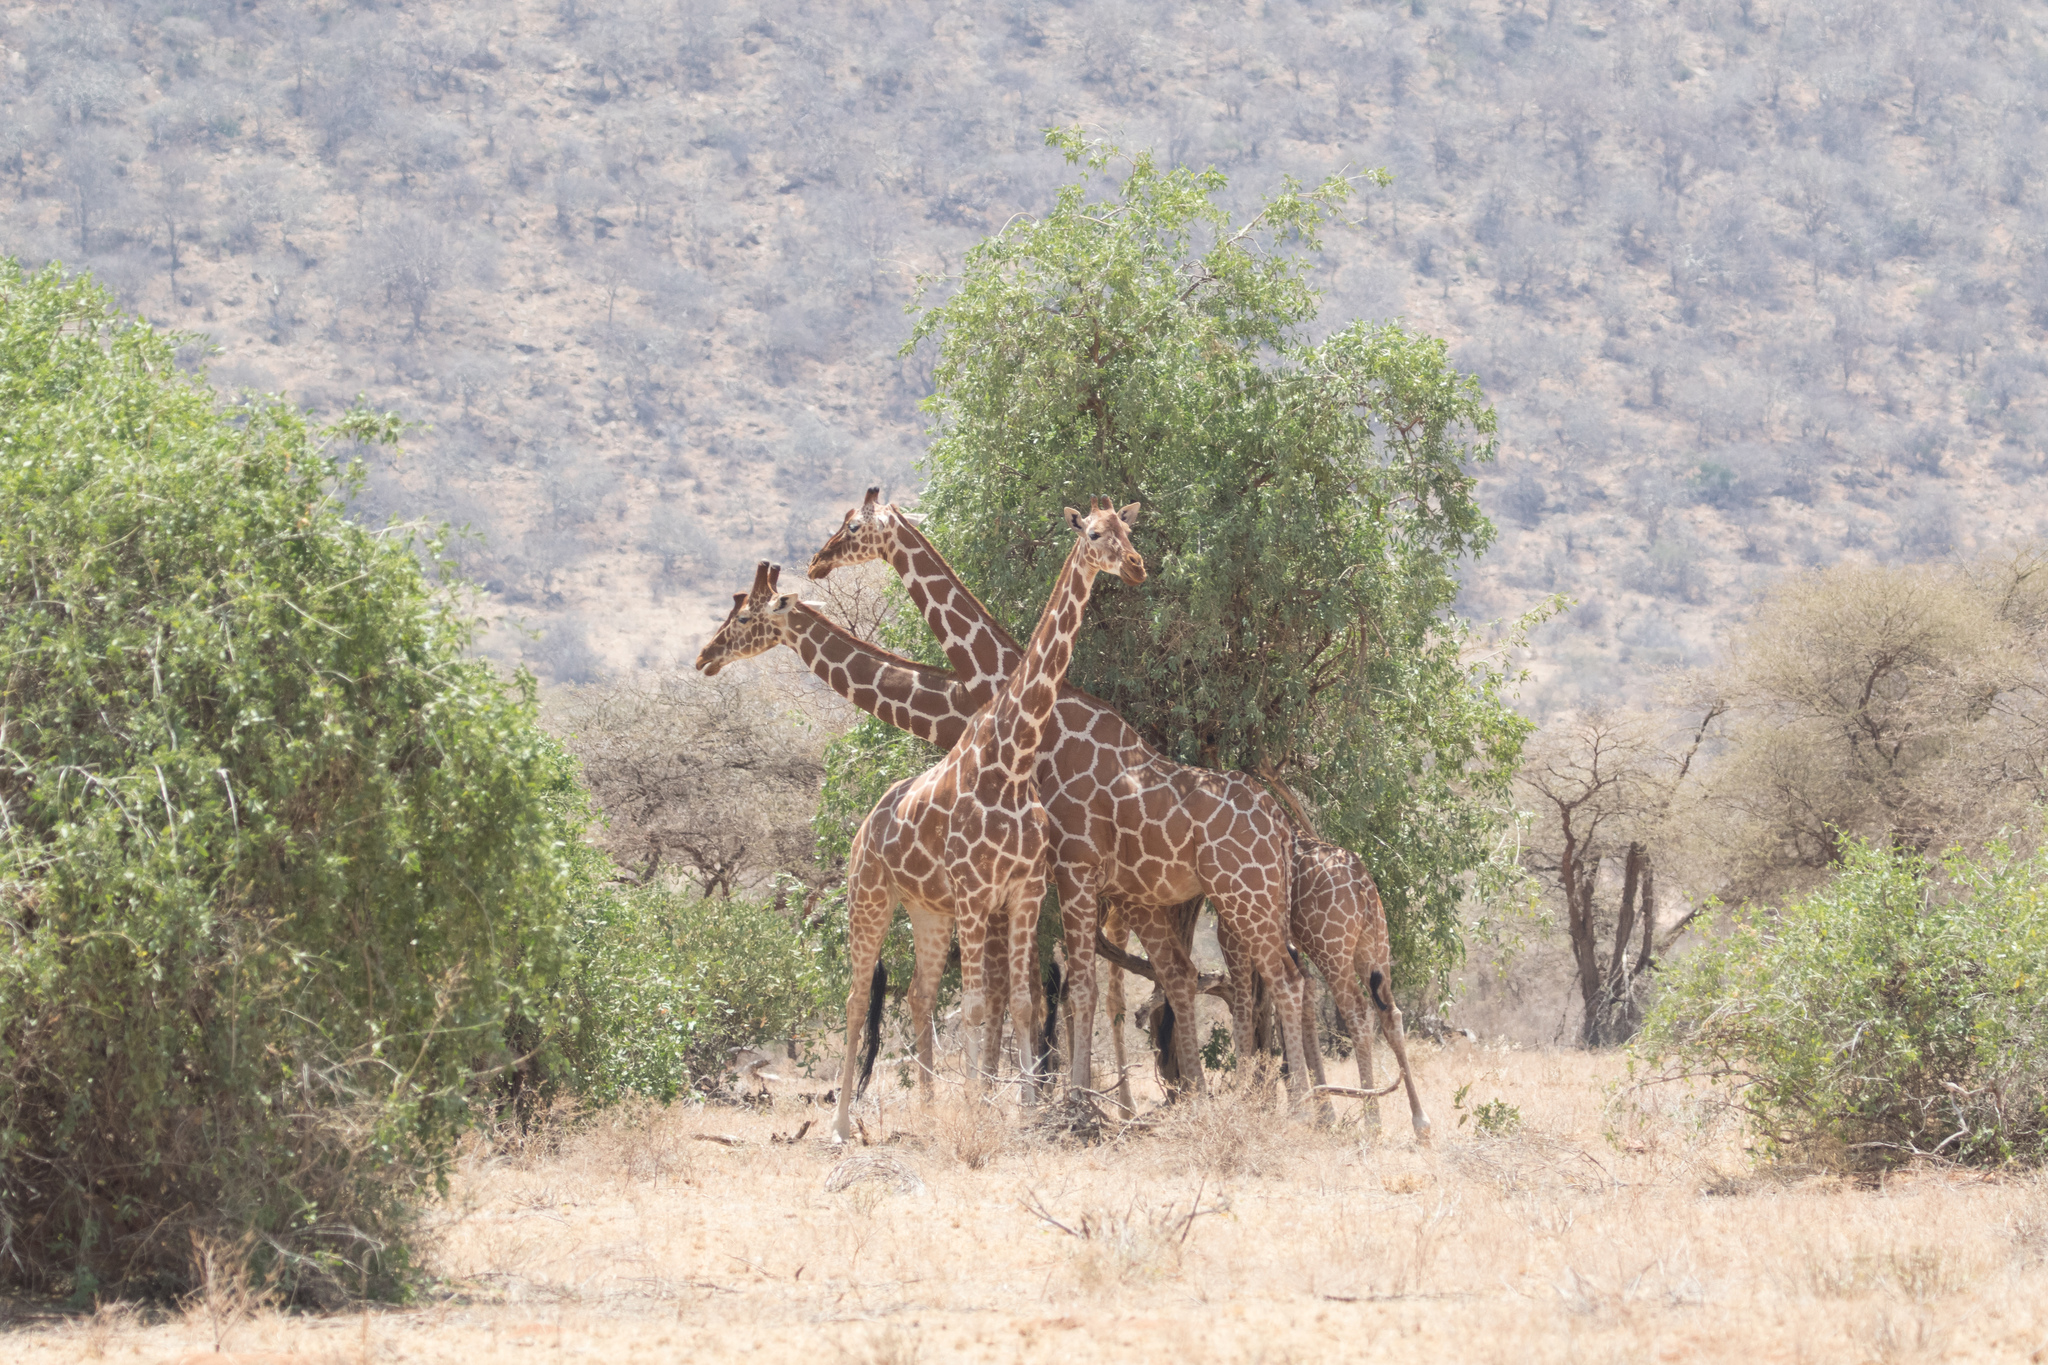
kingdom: Animalia
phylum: Chordata
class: Mammalia
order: Artiodactyla
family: Giraffidae
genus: Giraffa
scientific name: Giraffa reticulata
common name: Reticulated giraffe
